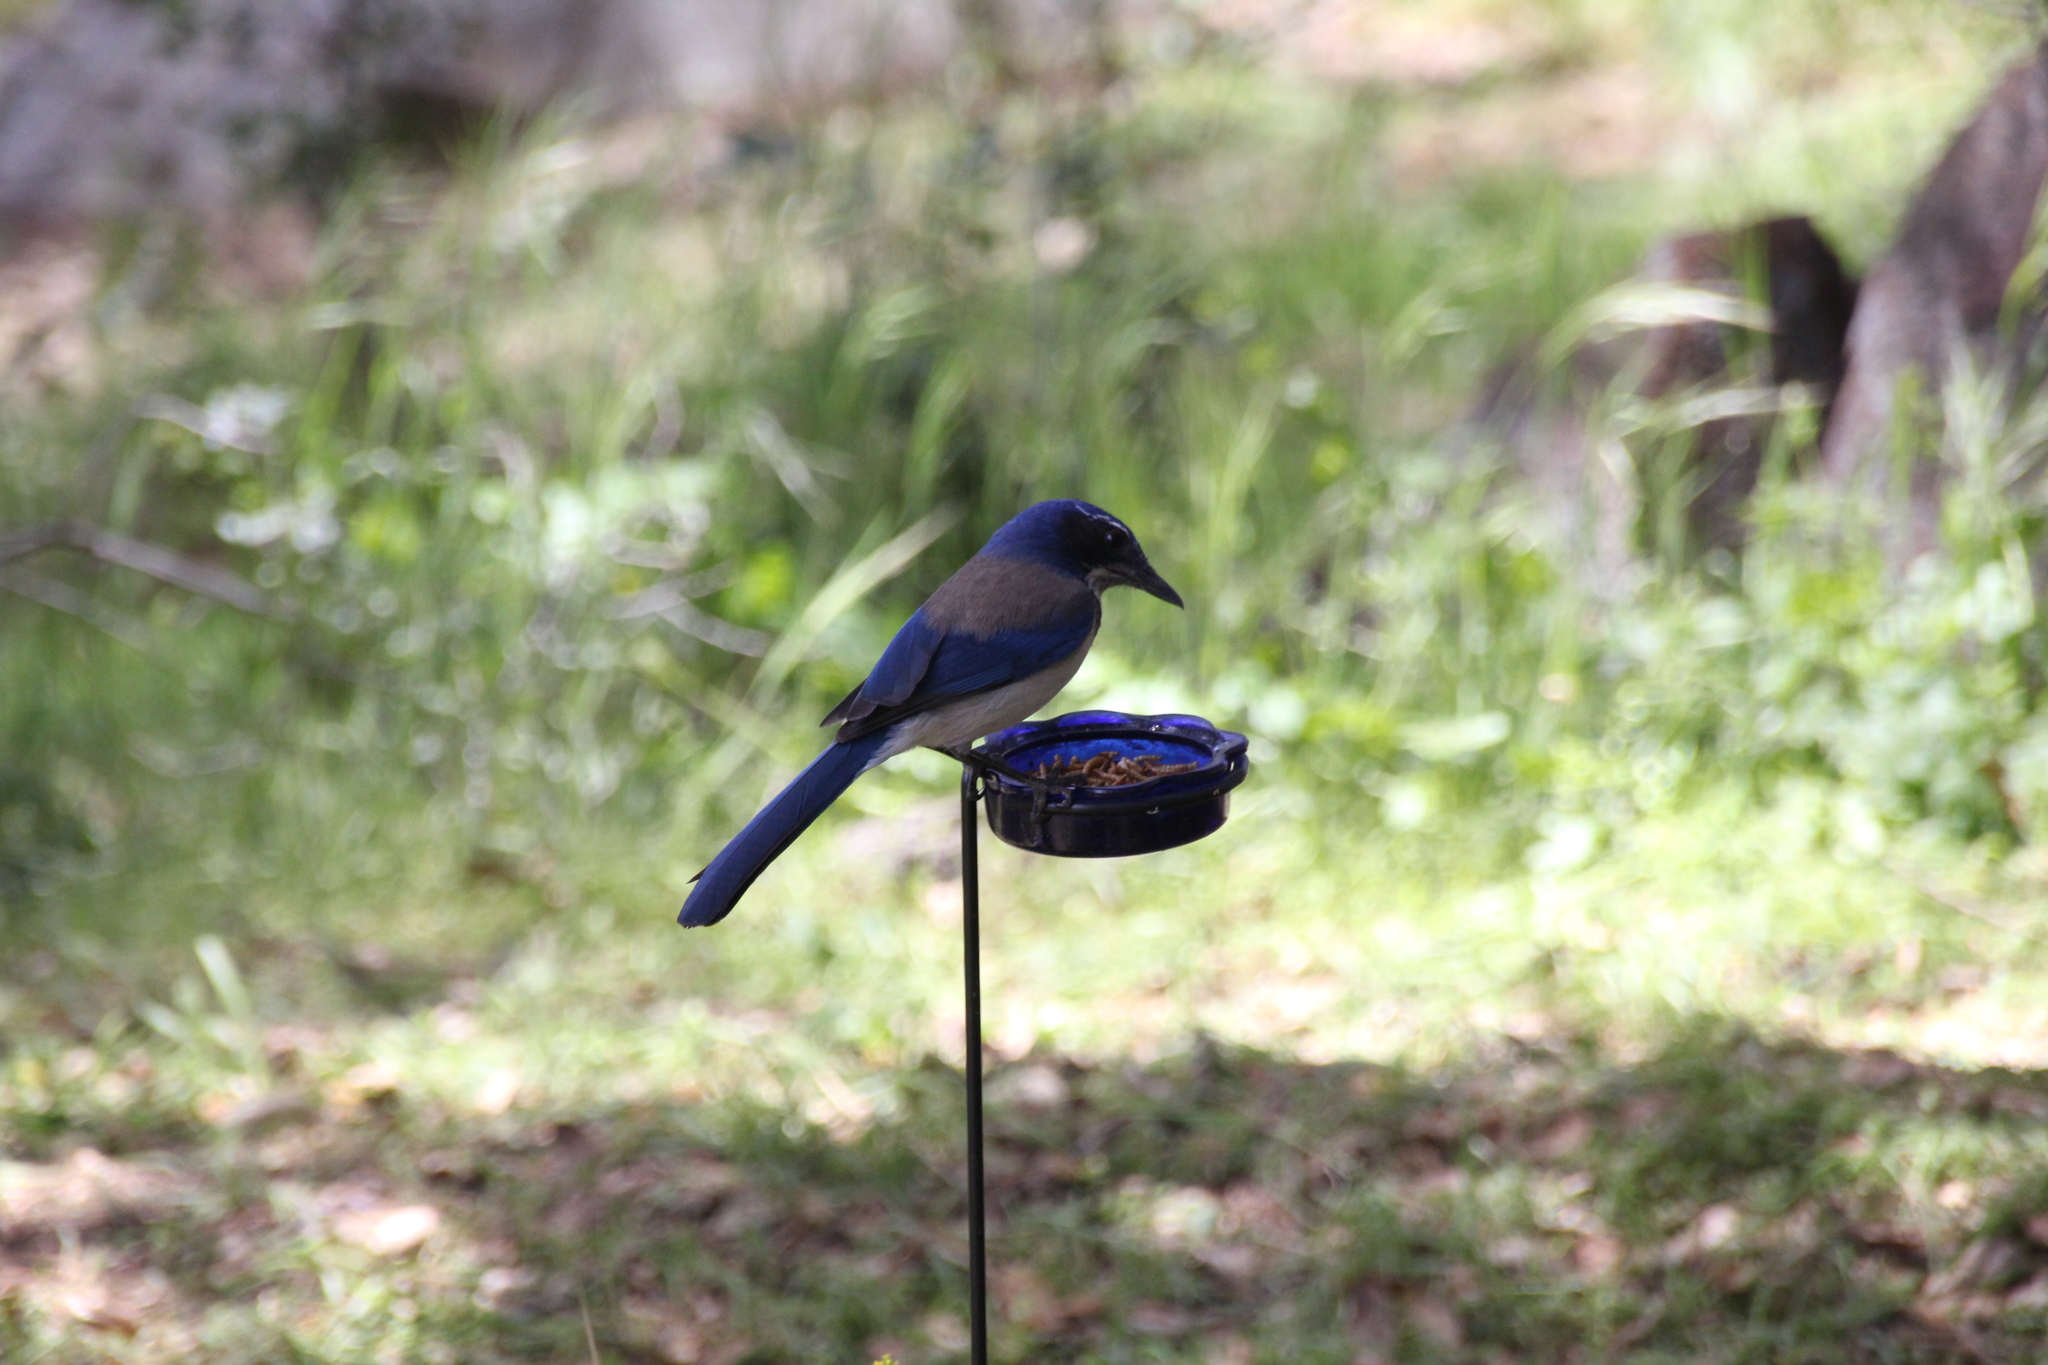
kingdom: Animalia
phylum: Chordata
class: Aves
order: Passeriformes
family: Corvidae
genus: Aphelocoma
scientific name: Aphelocoma californica
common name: California scrub-jay
